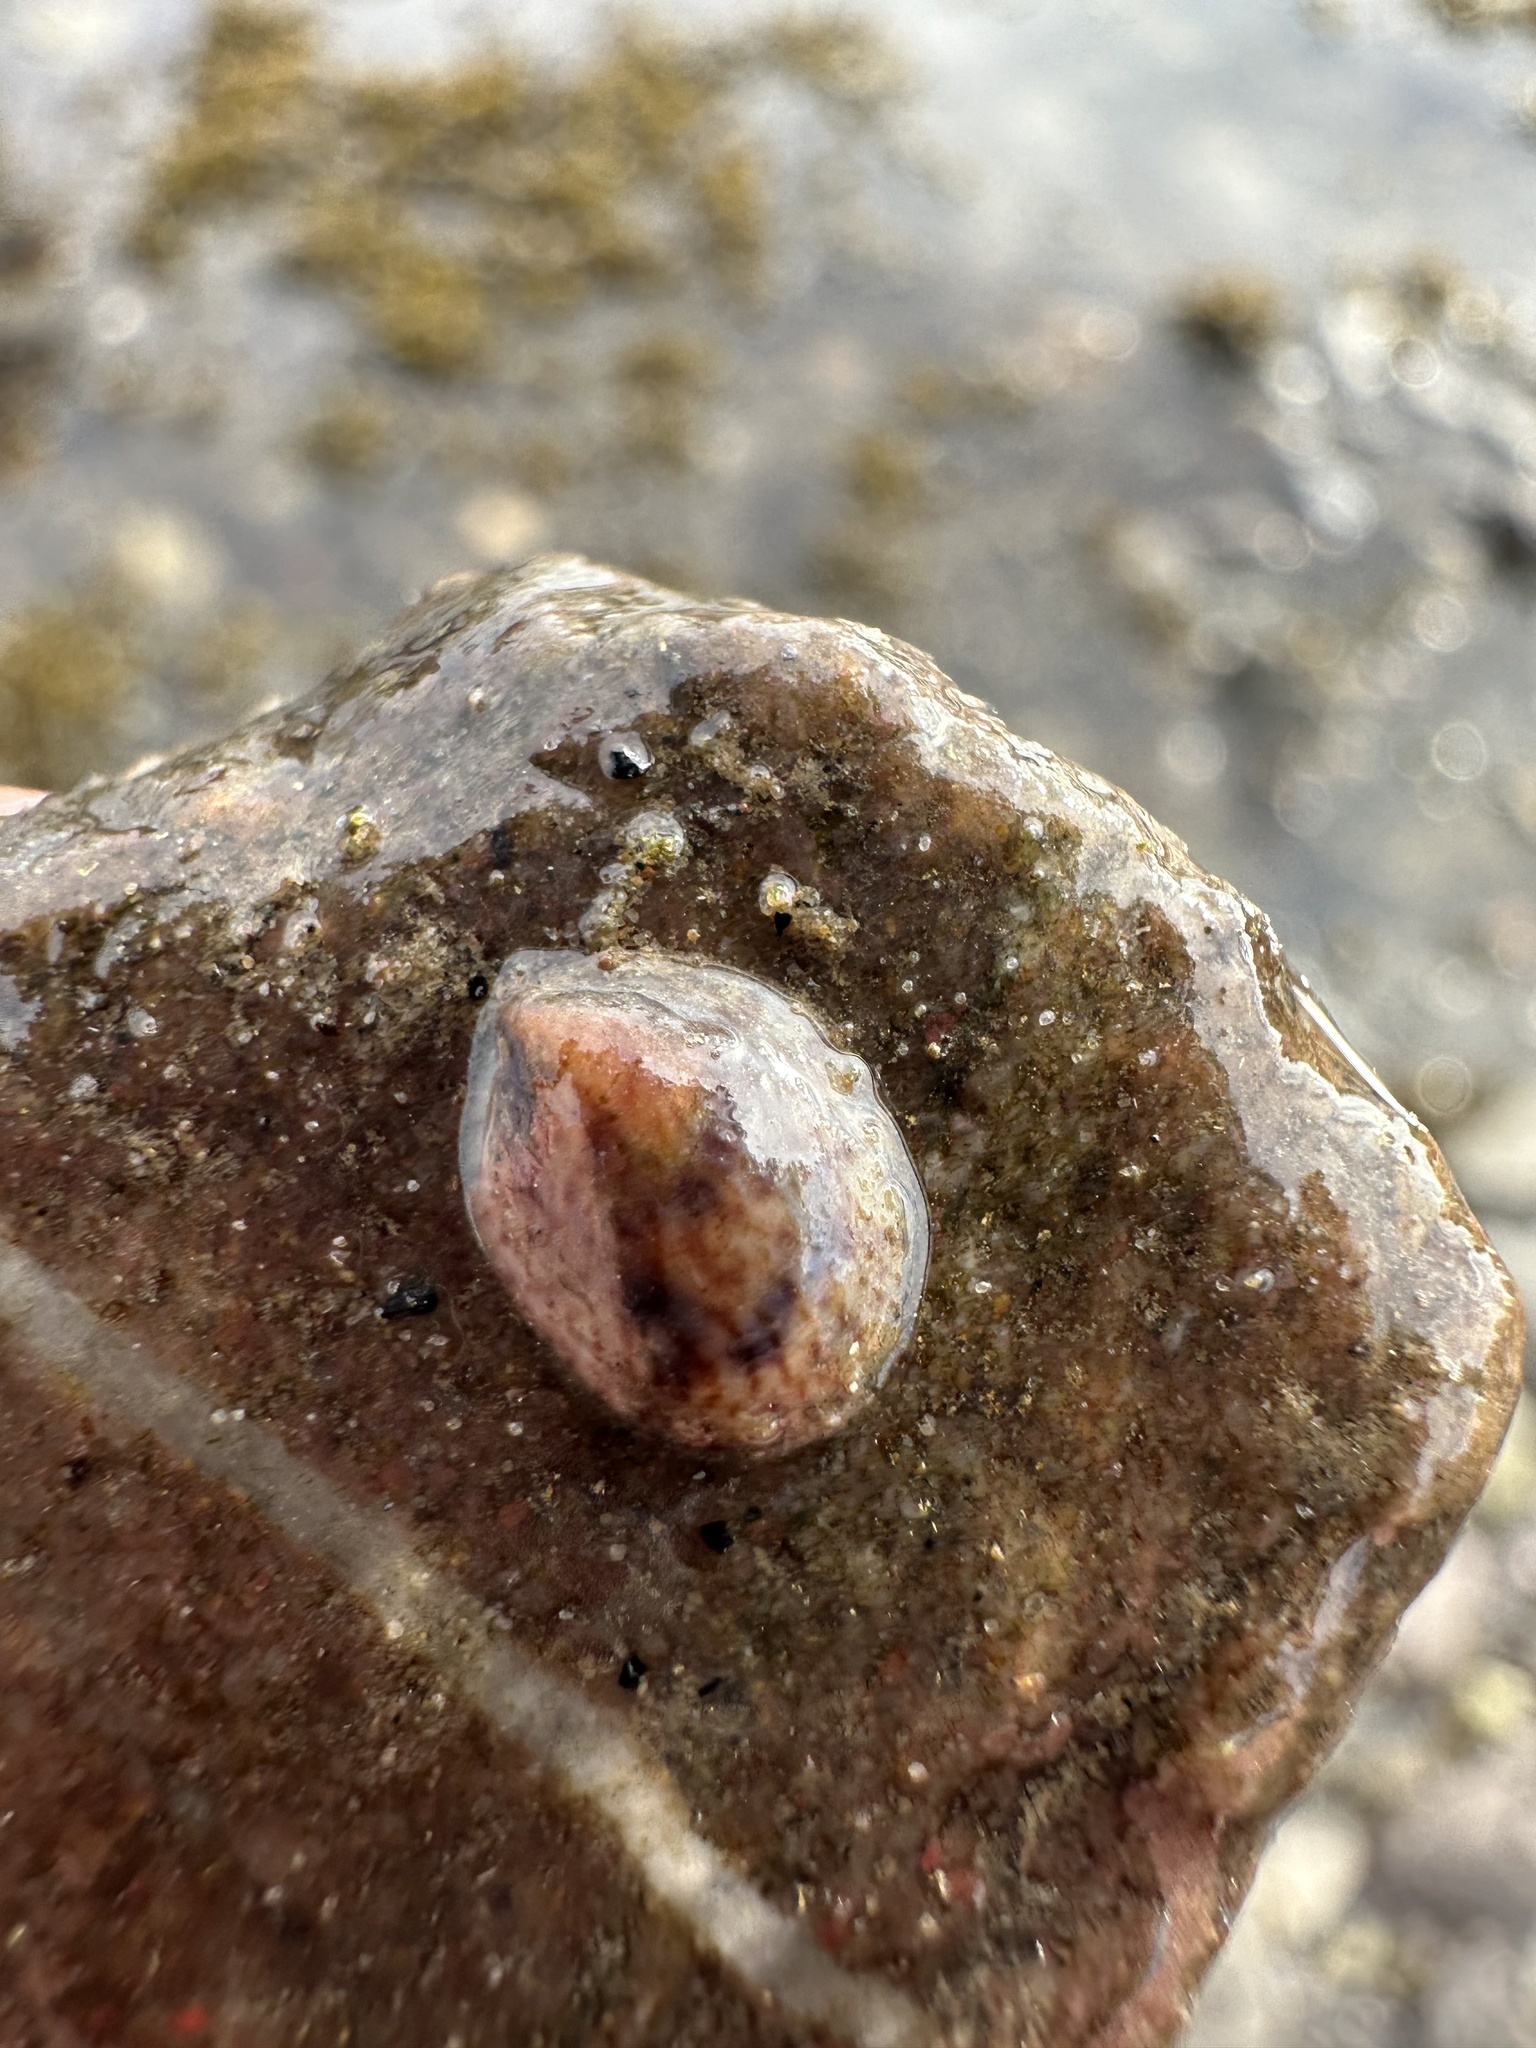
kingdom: Animalia
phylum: Mollusca
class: Gastropoda
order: Littorinimorpha
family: Calyptraeidae
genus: Crepidula
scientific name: Crepidula fornicata
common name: Slipper limpet
